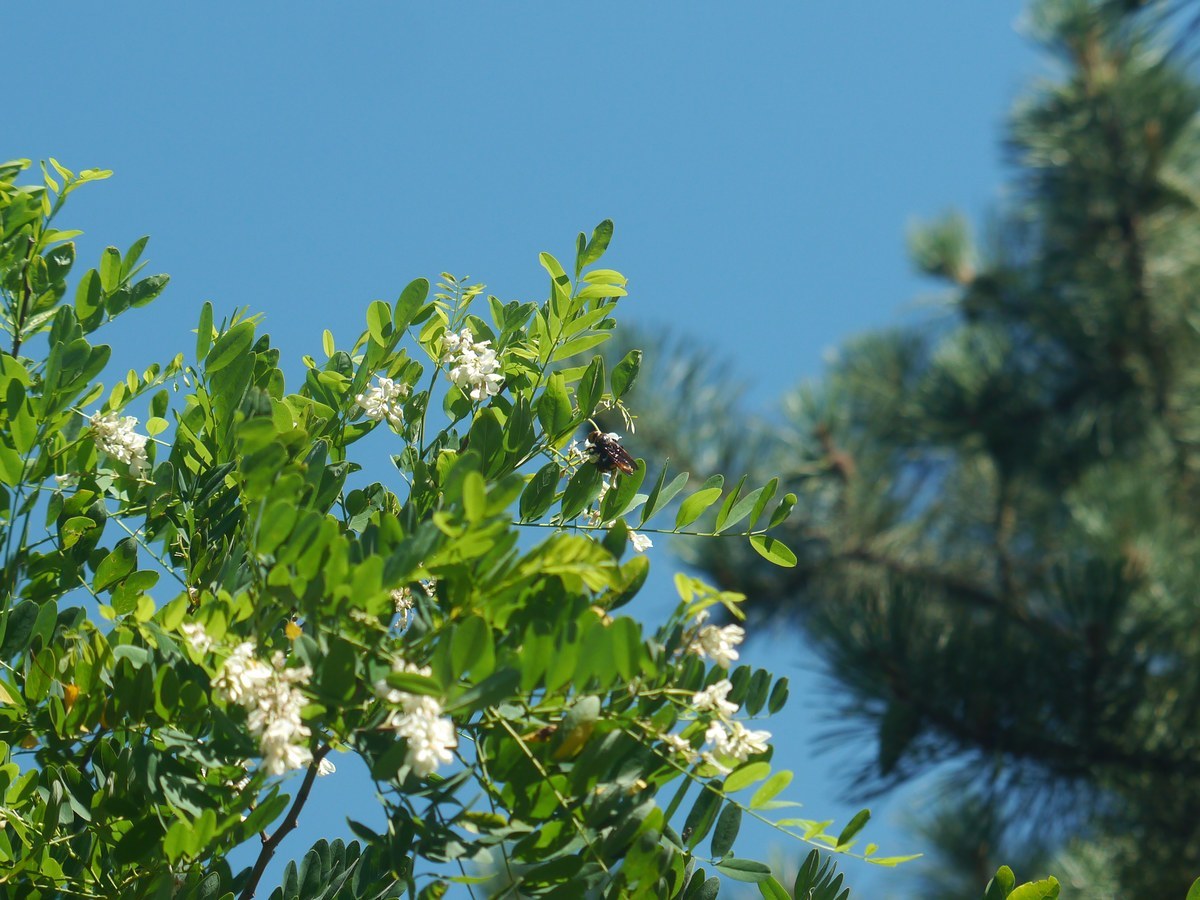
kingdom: Plantae
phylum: Tracheophyta
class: Magnoliopsida
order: Fabales
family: Fabaceae
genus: Robinia
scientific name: Robinia pseudoacacia
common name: Black locust
